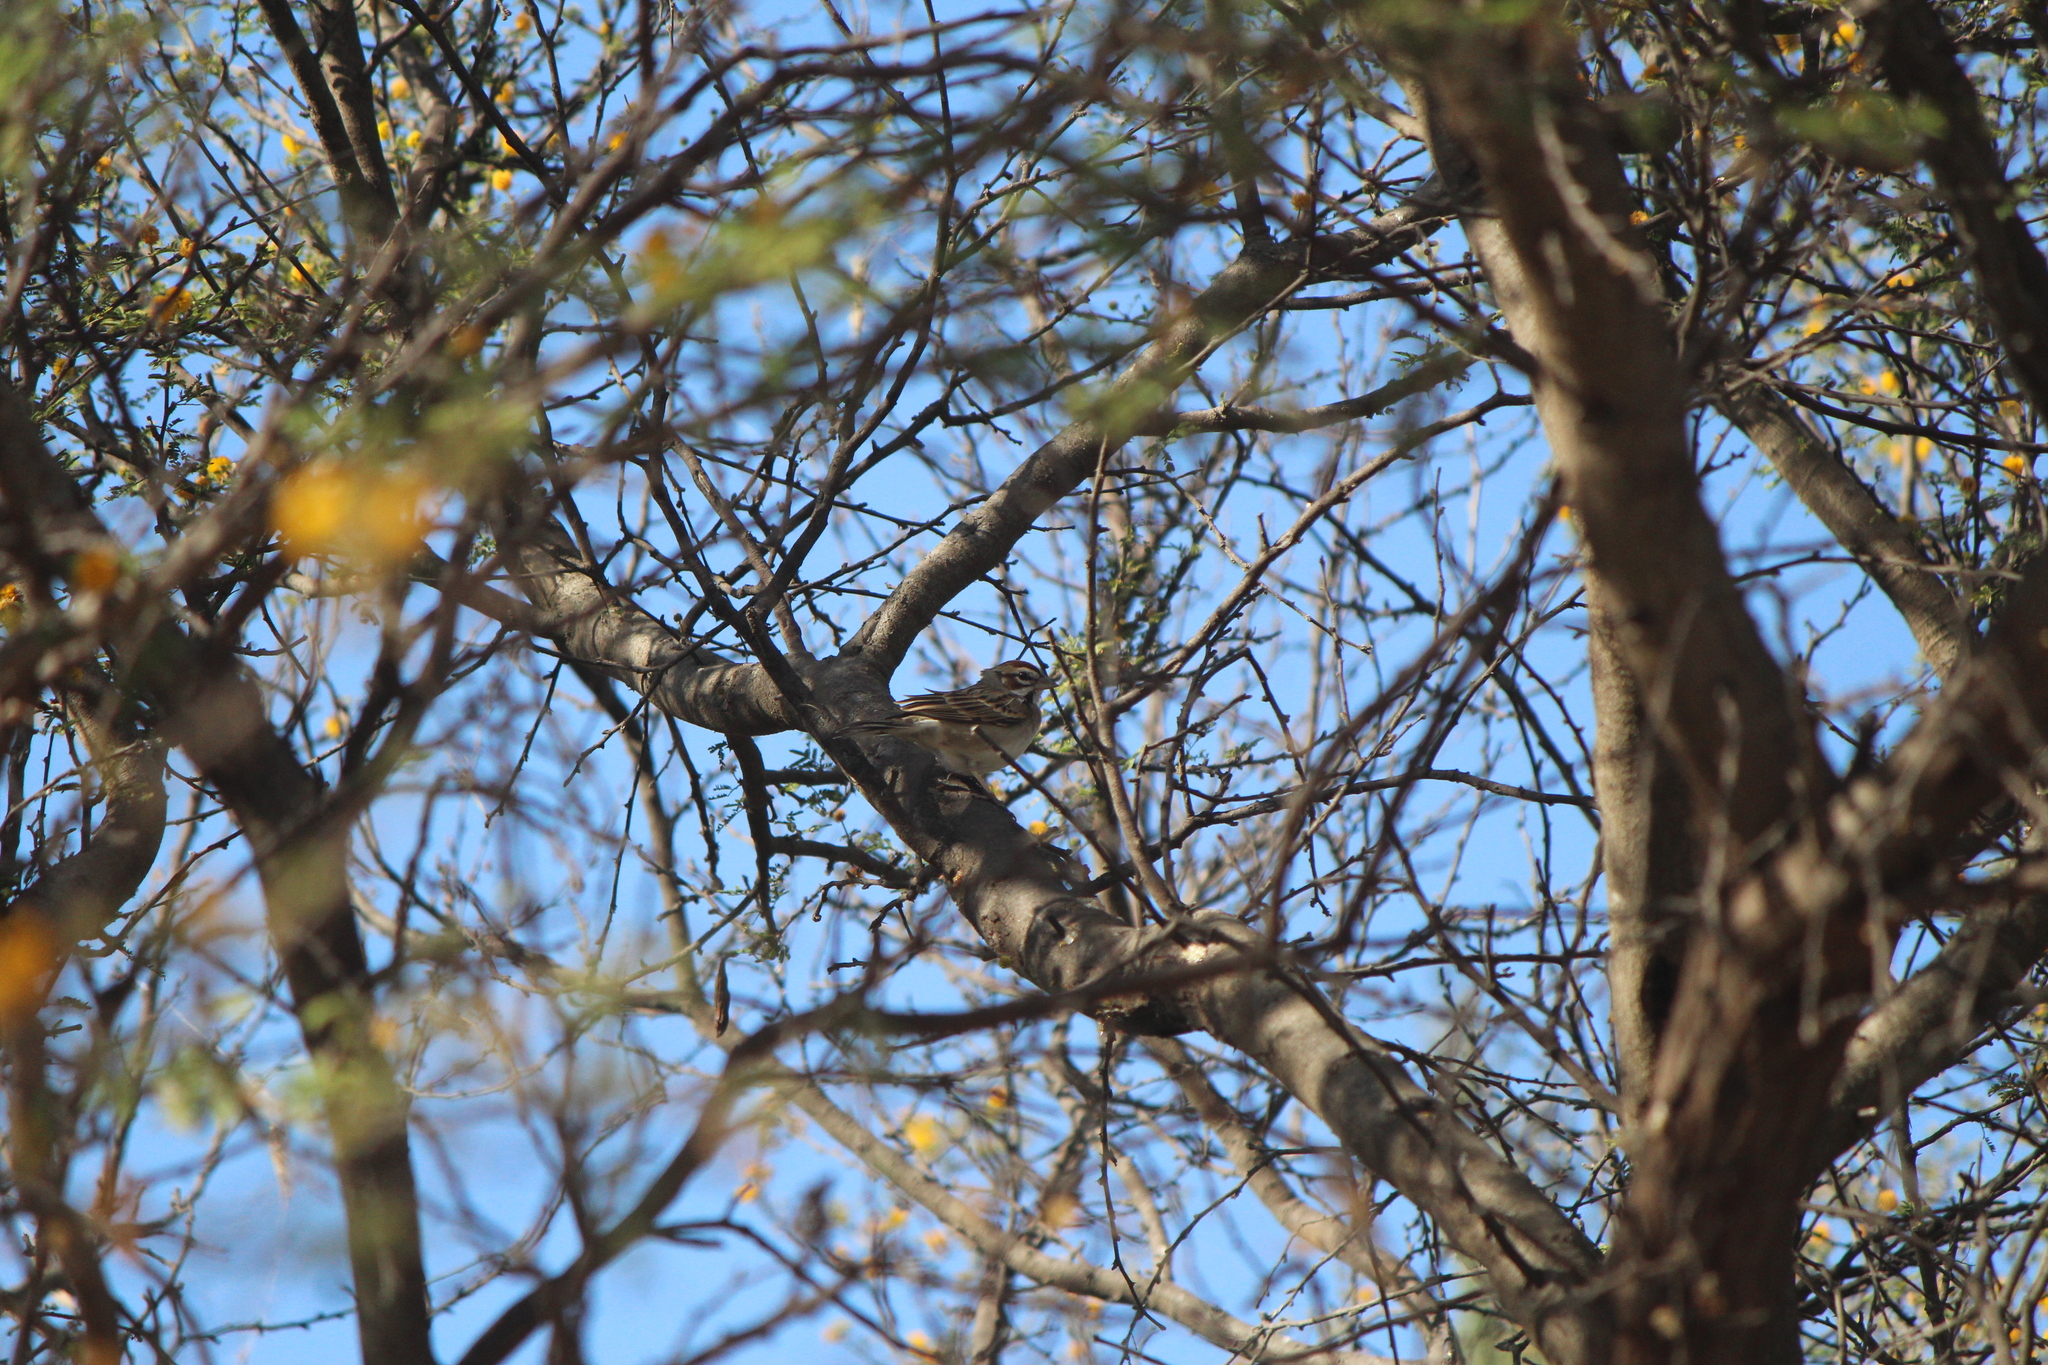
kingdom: Animalia
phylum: Chordata
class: Aves
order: Passeriformes
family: Passerellidae
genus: Chondestes
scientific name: Chondestes grammacus
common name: Lark sparrow
